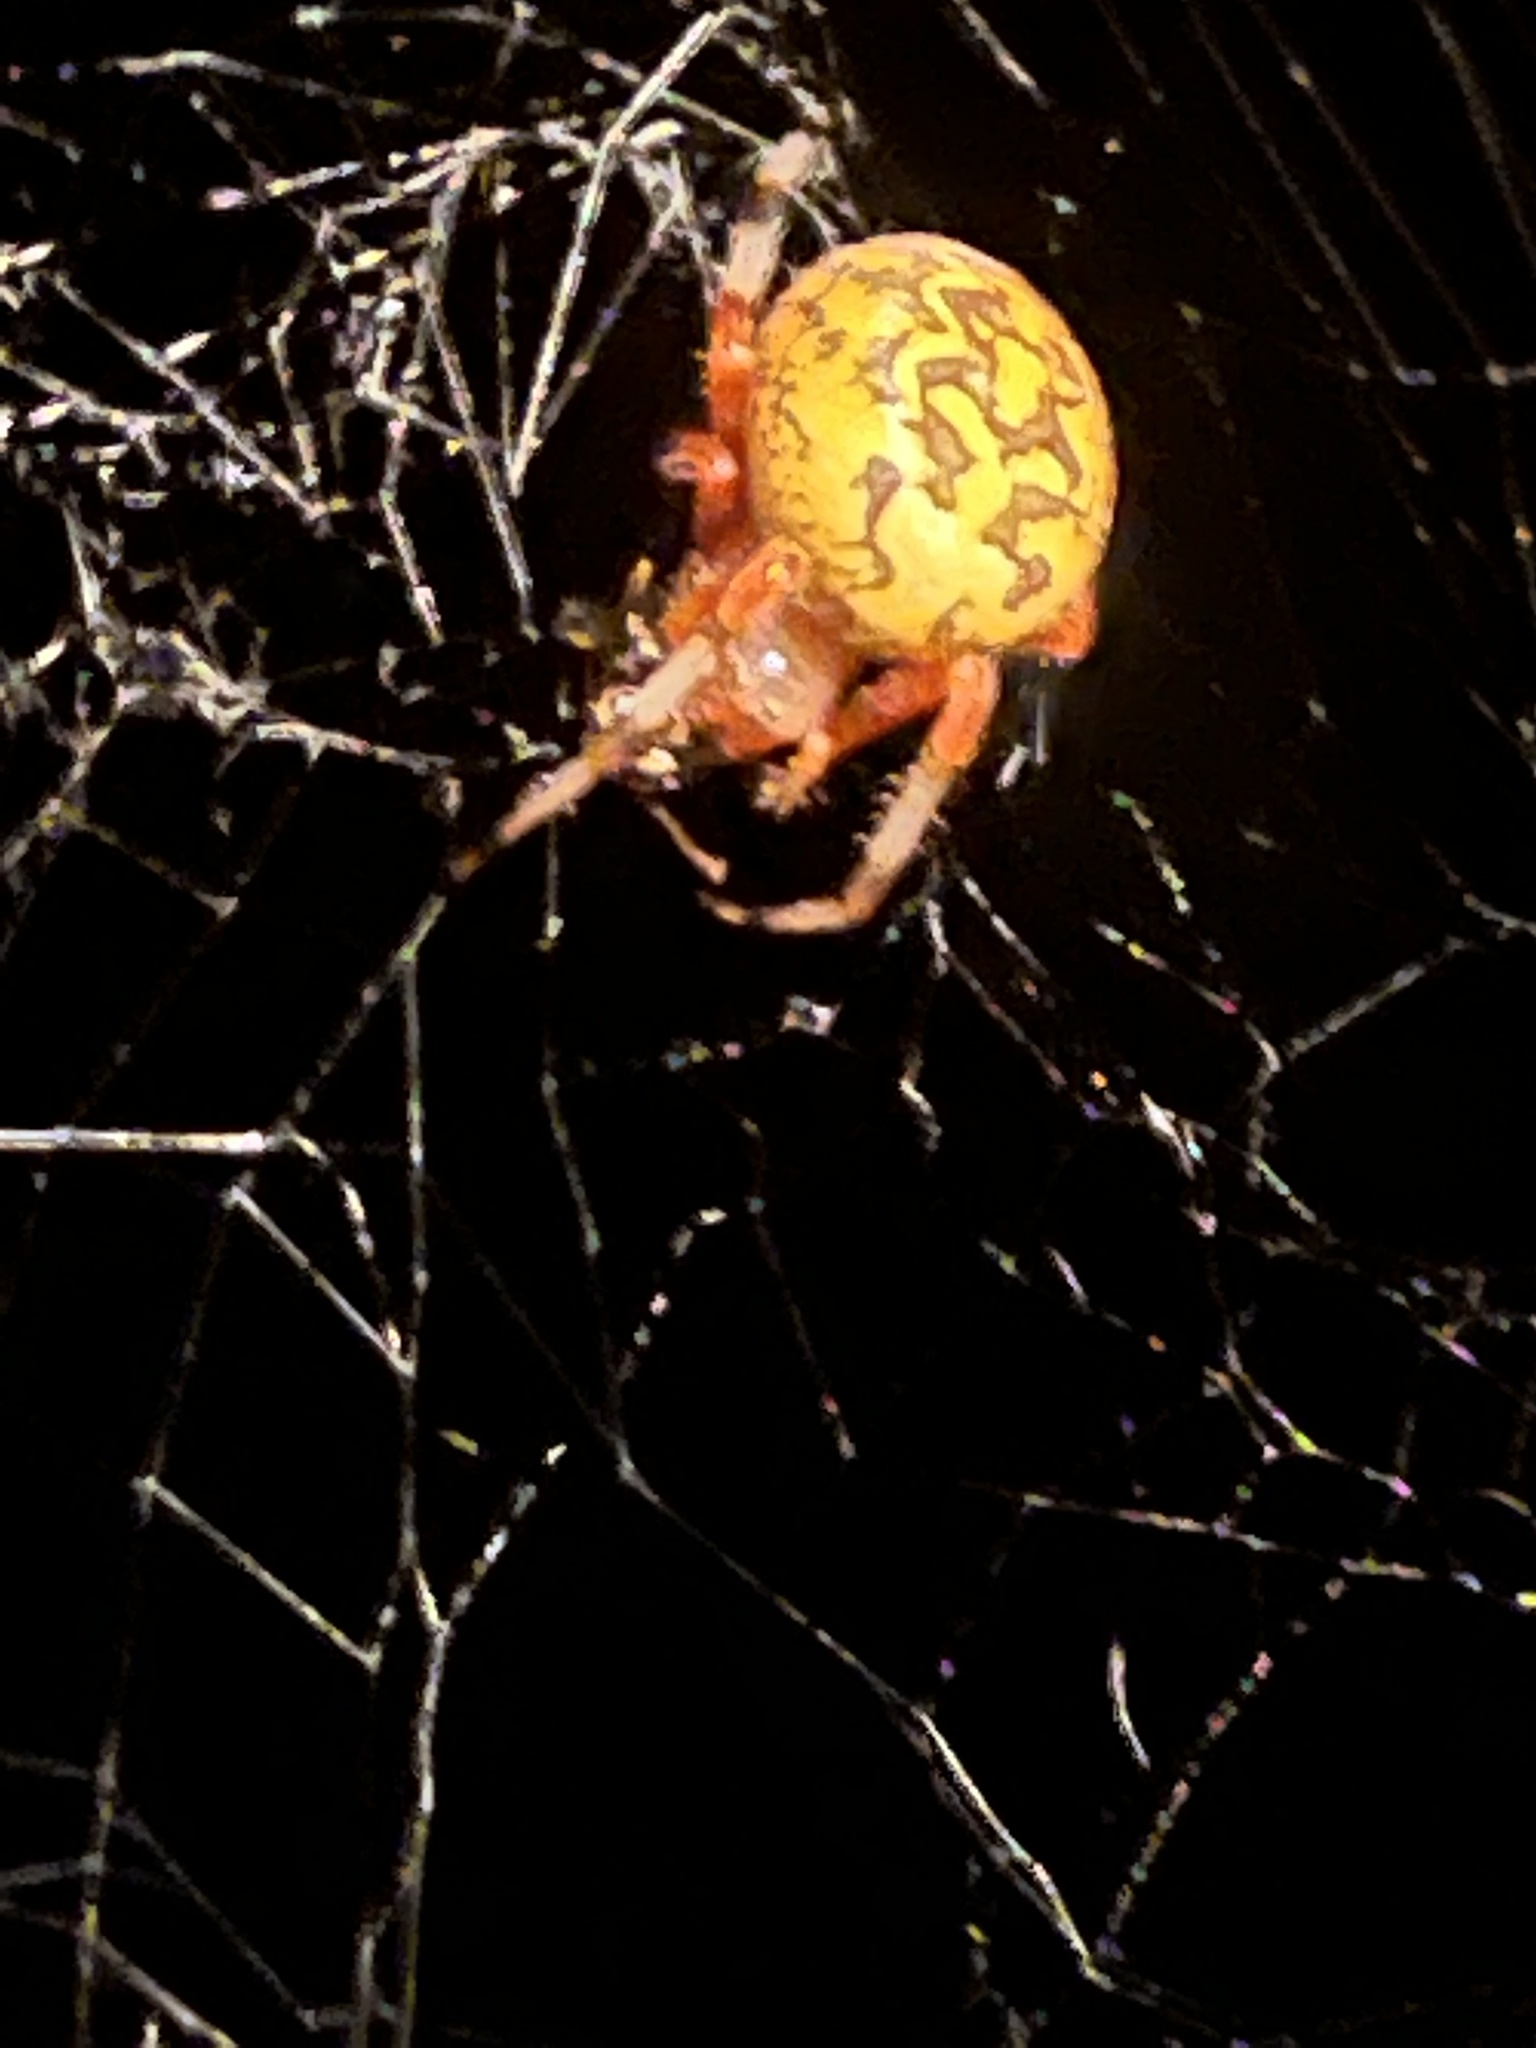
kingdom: Animalia
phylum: Arthropoda
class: Arachnida
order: Araneae
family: Araneidae
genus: Araneus
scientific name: Araneus marmoreus
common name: Marbled orbweaver
